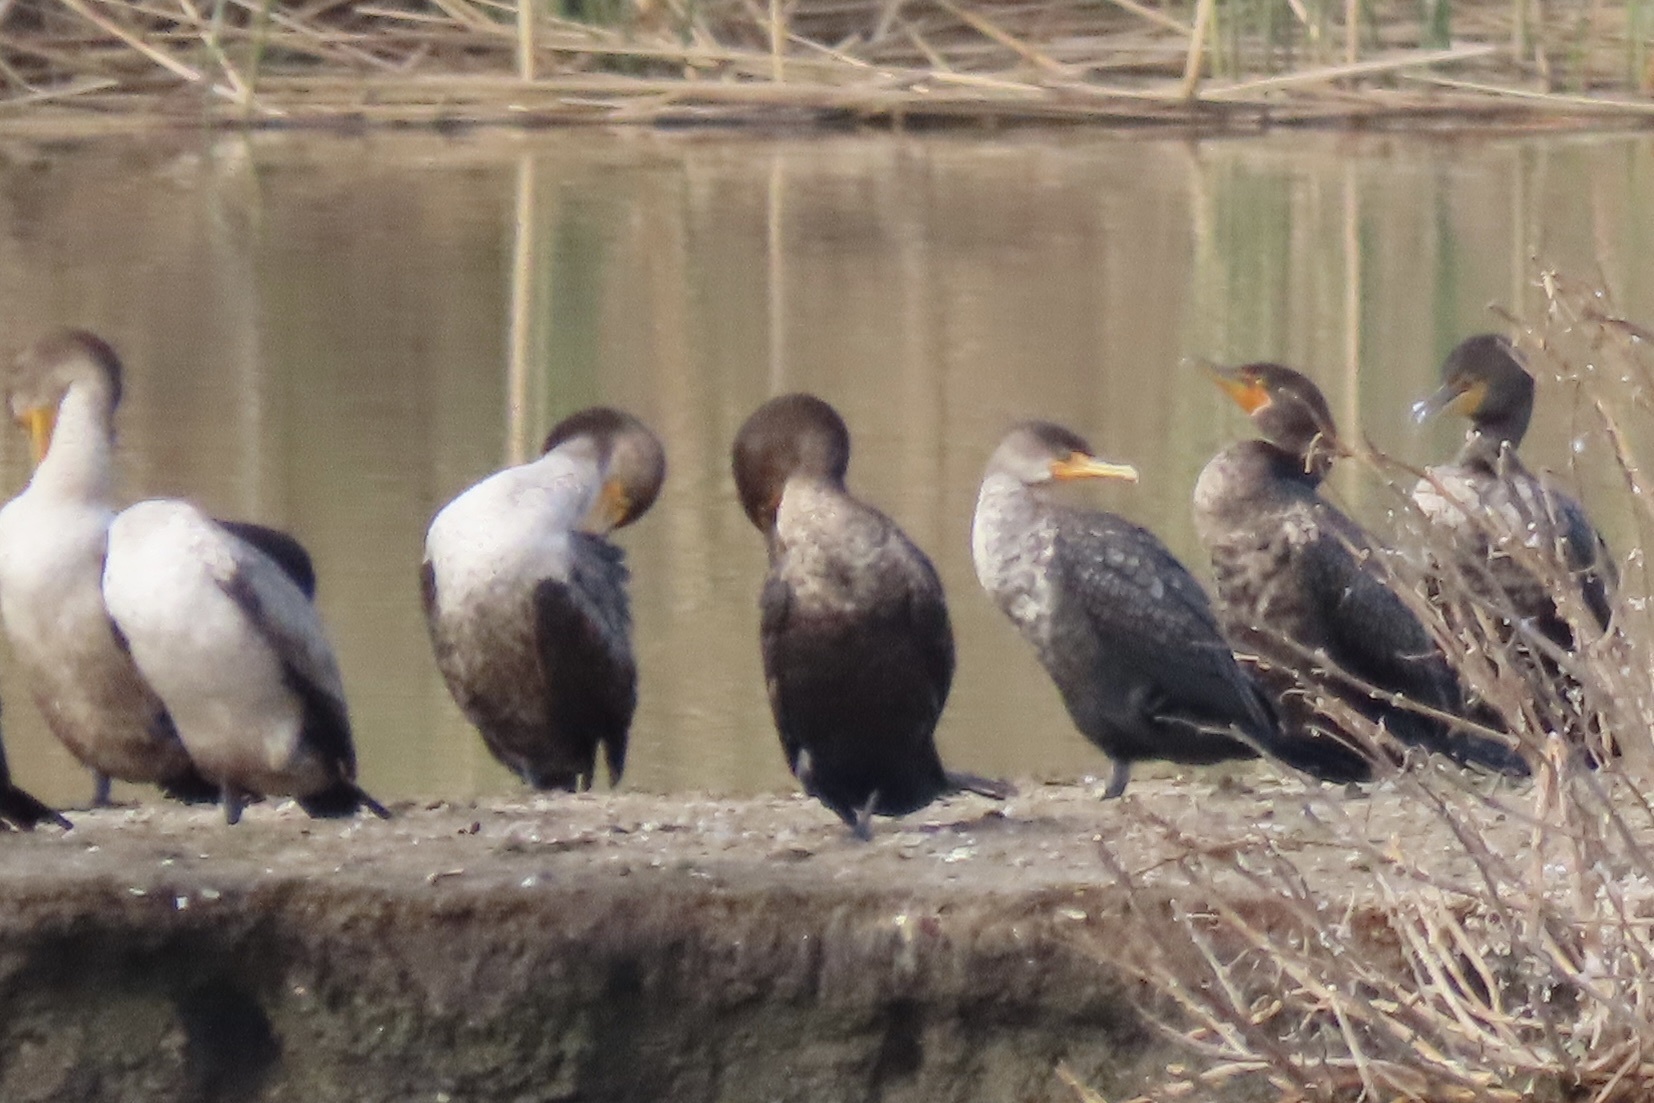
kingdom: Animalia
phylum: Chordata
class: Aves
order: Suliformes
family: Phalacrocoracidae
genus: Phalacrocorax
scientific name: Phalacrocorax auritus
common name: Double-crested cormorant
